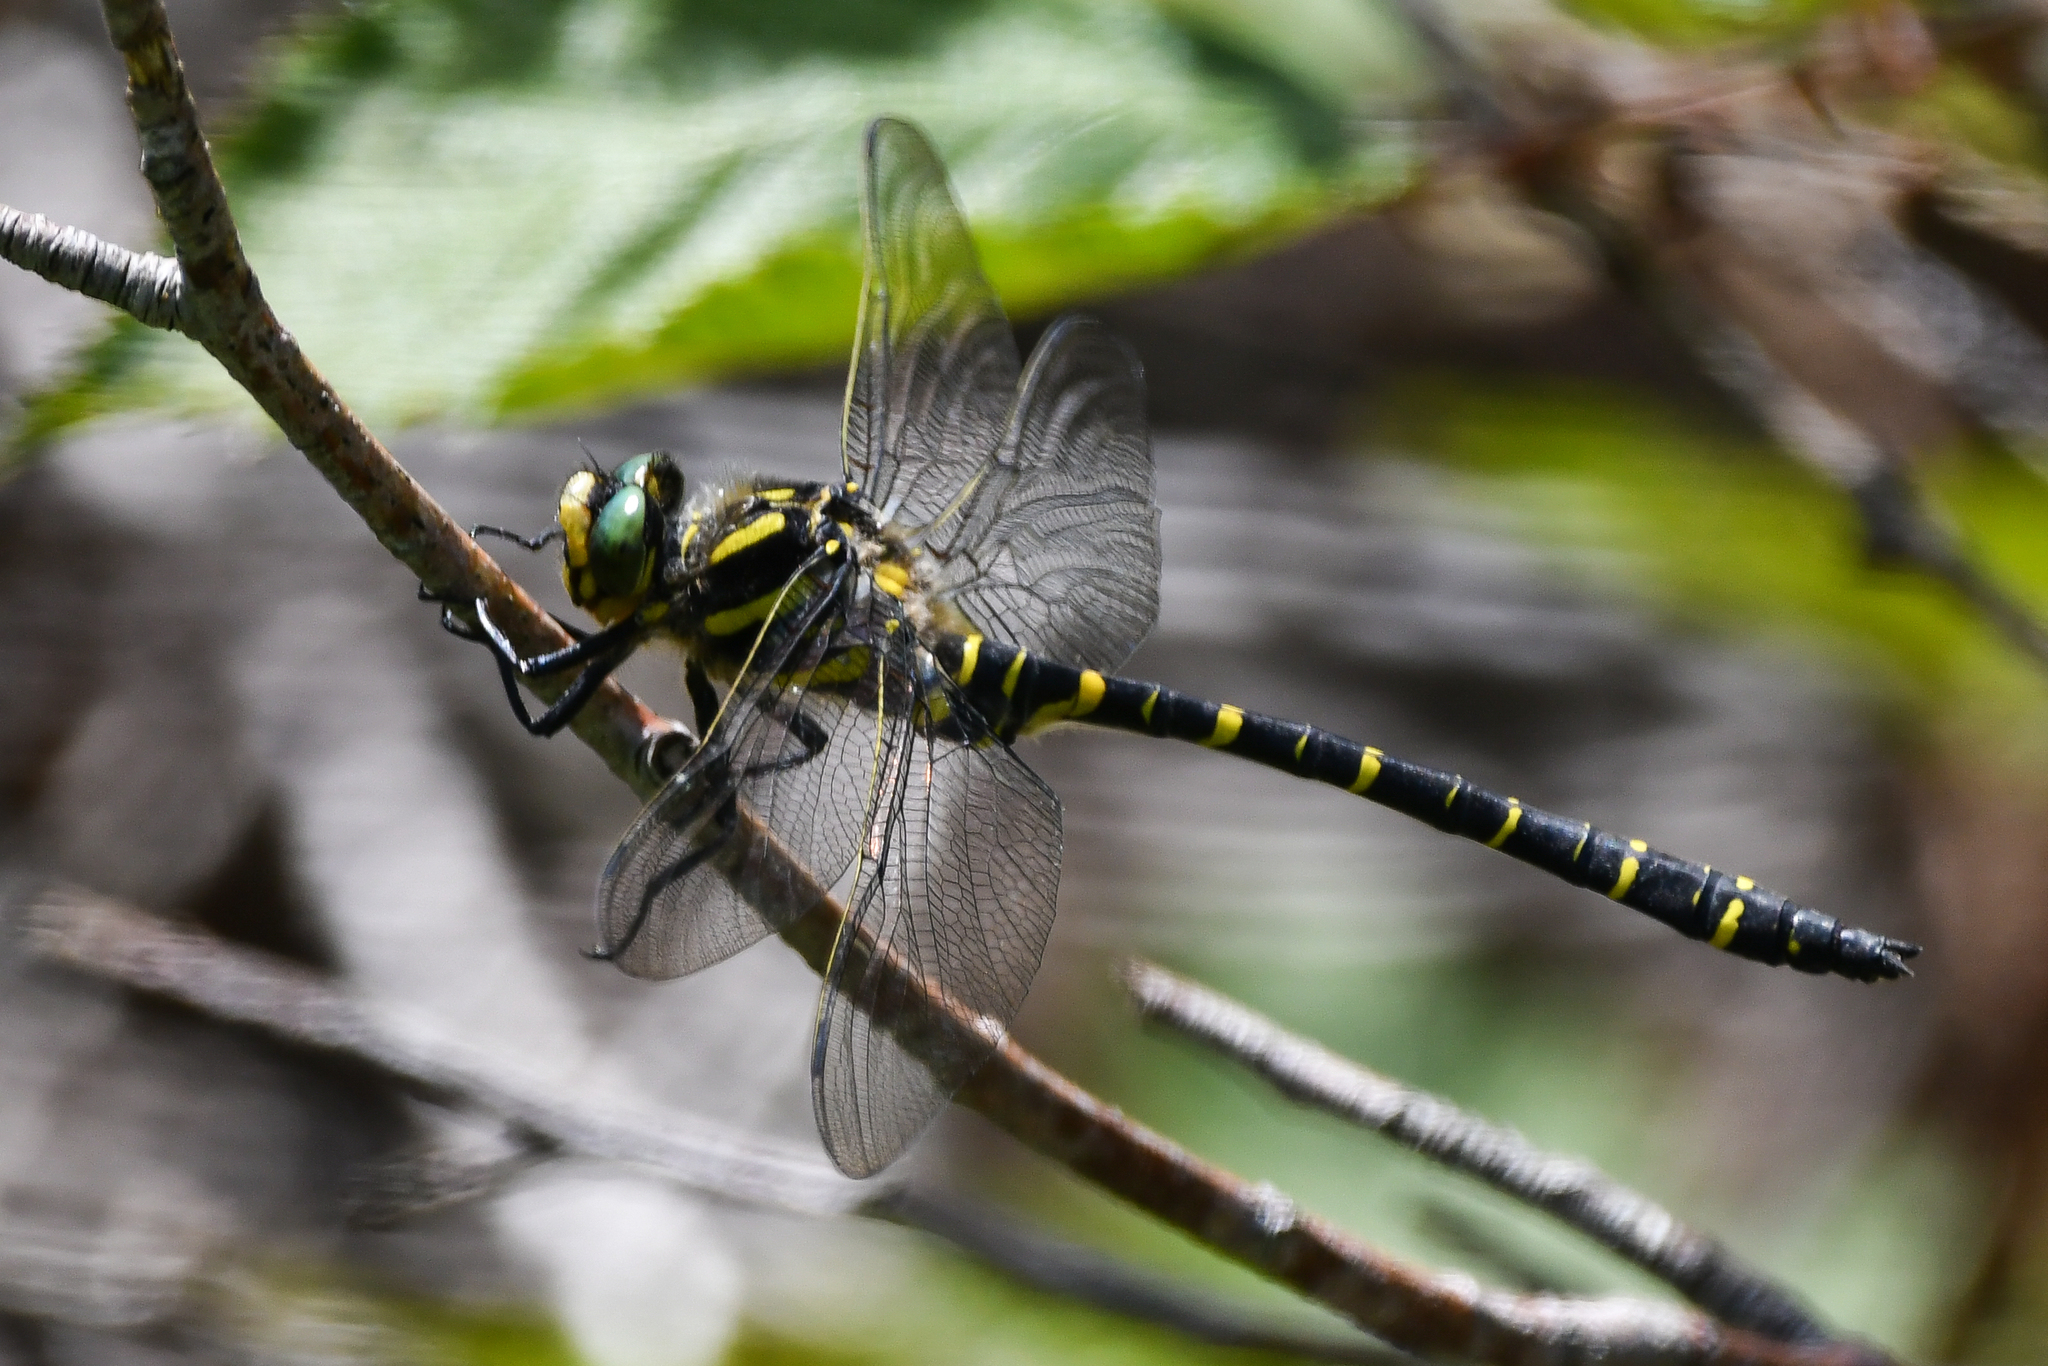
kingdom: Animalia
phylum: Arthropoda
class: Insecta
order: Odonata
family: Cordulegastridae
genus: Cordulegaster
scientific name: Cordulegaster boltonii
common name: Golden-ringed dragonfly
